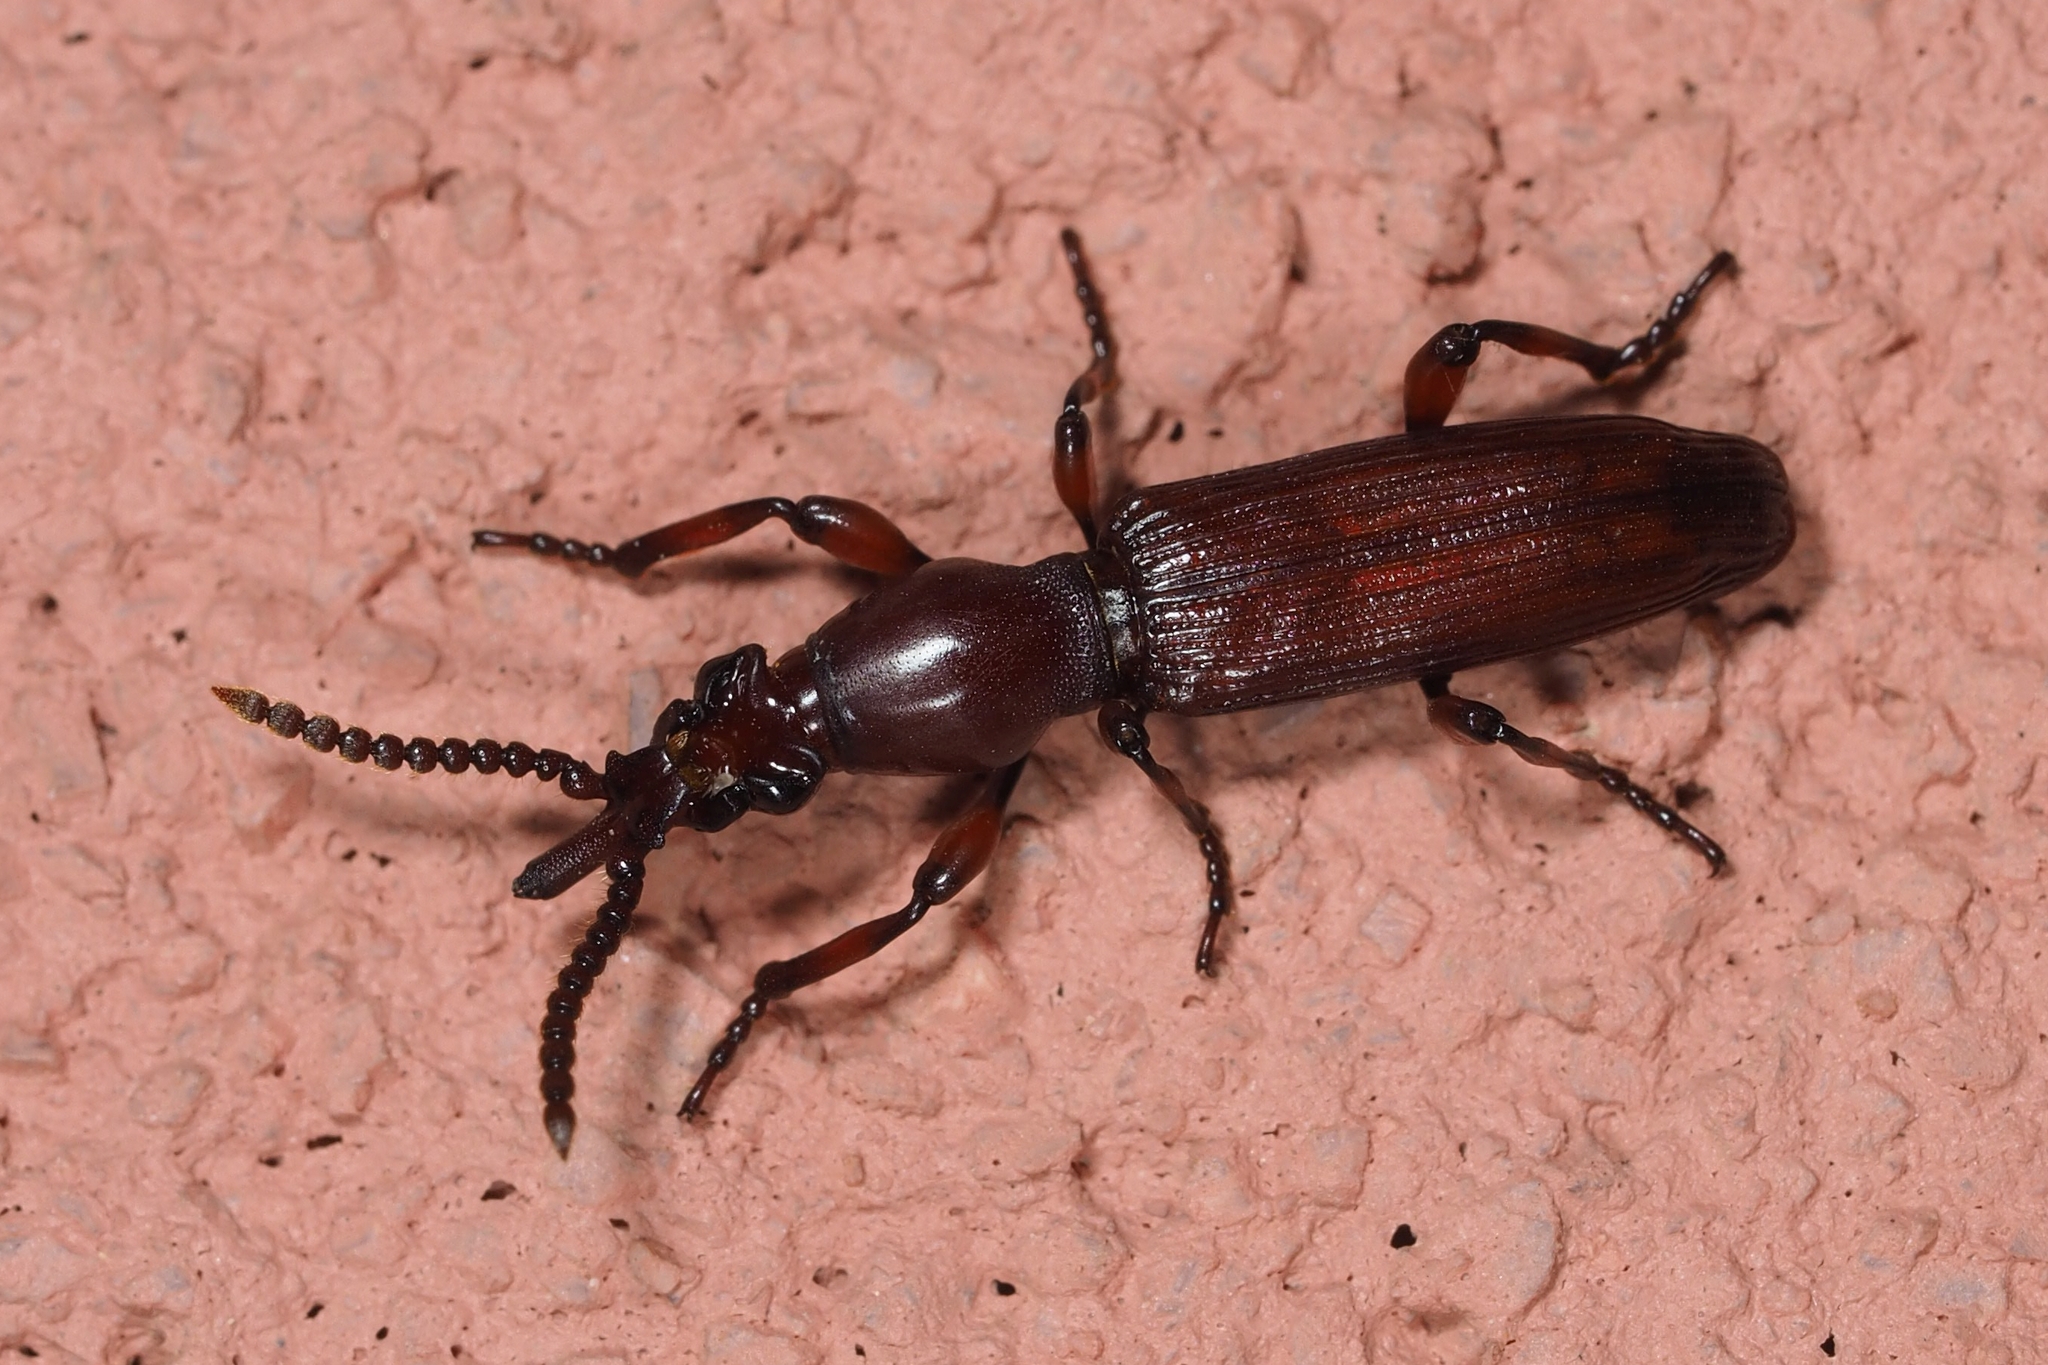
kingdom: Animalia
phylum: Arthropoda
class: Insecta
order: Coleoptera
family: Brentidae
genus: Amorphocephala
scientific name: Amorphocephala coronata
